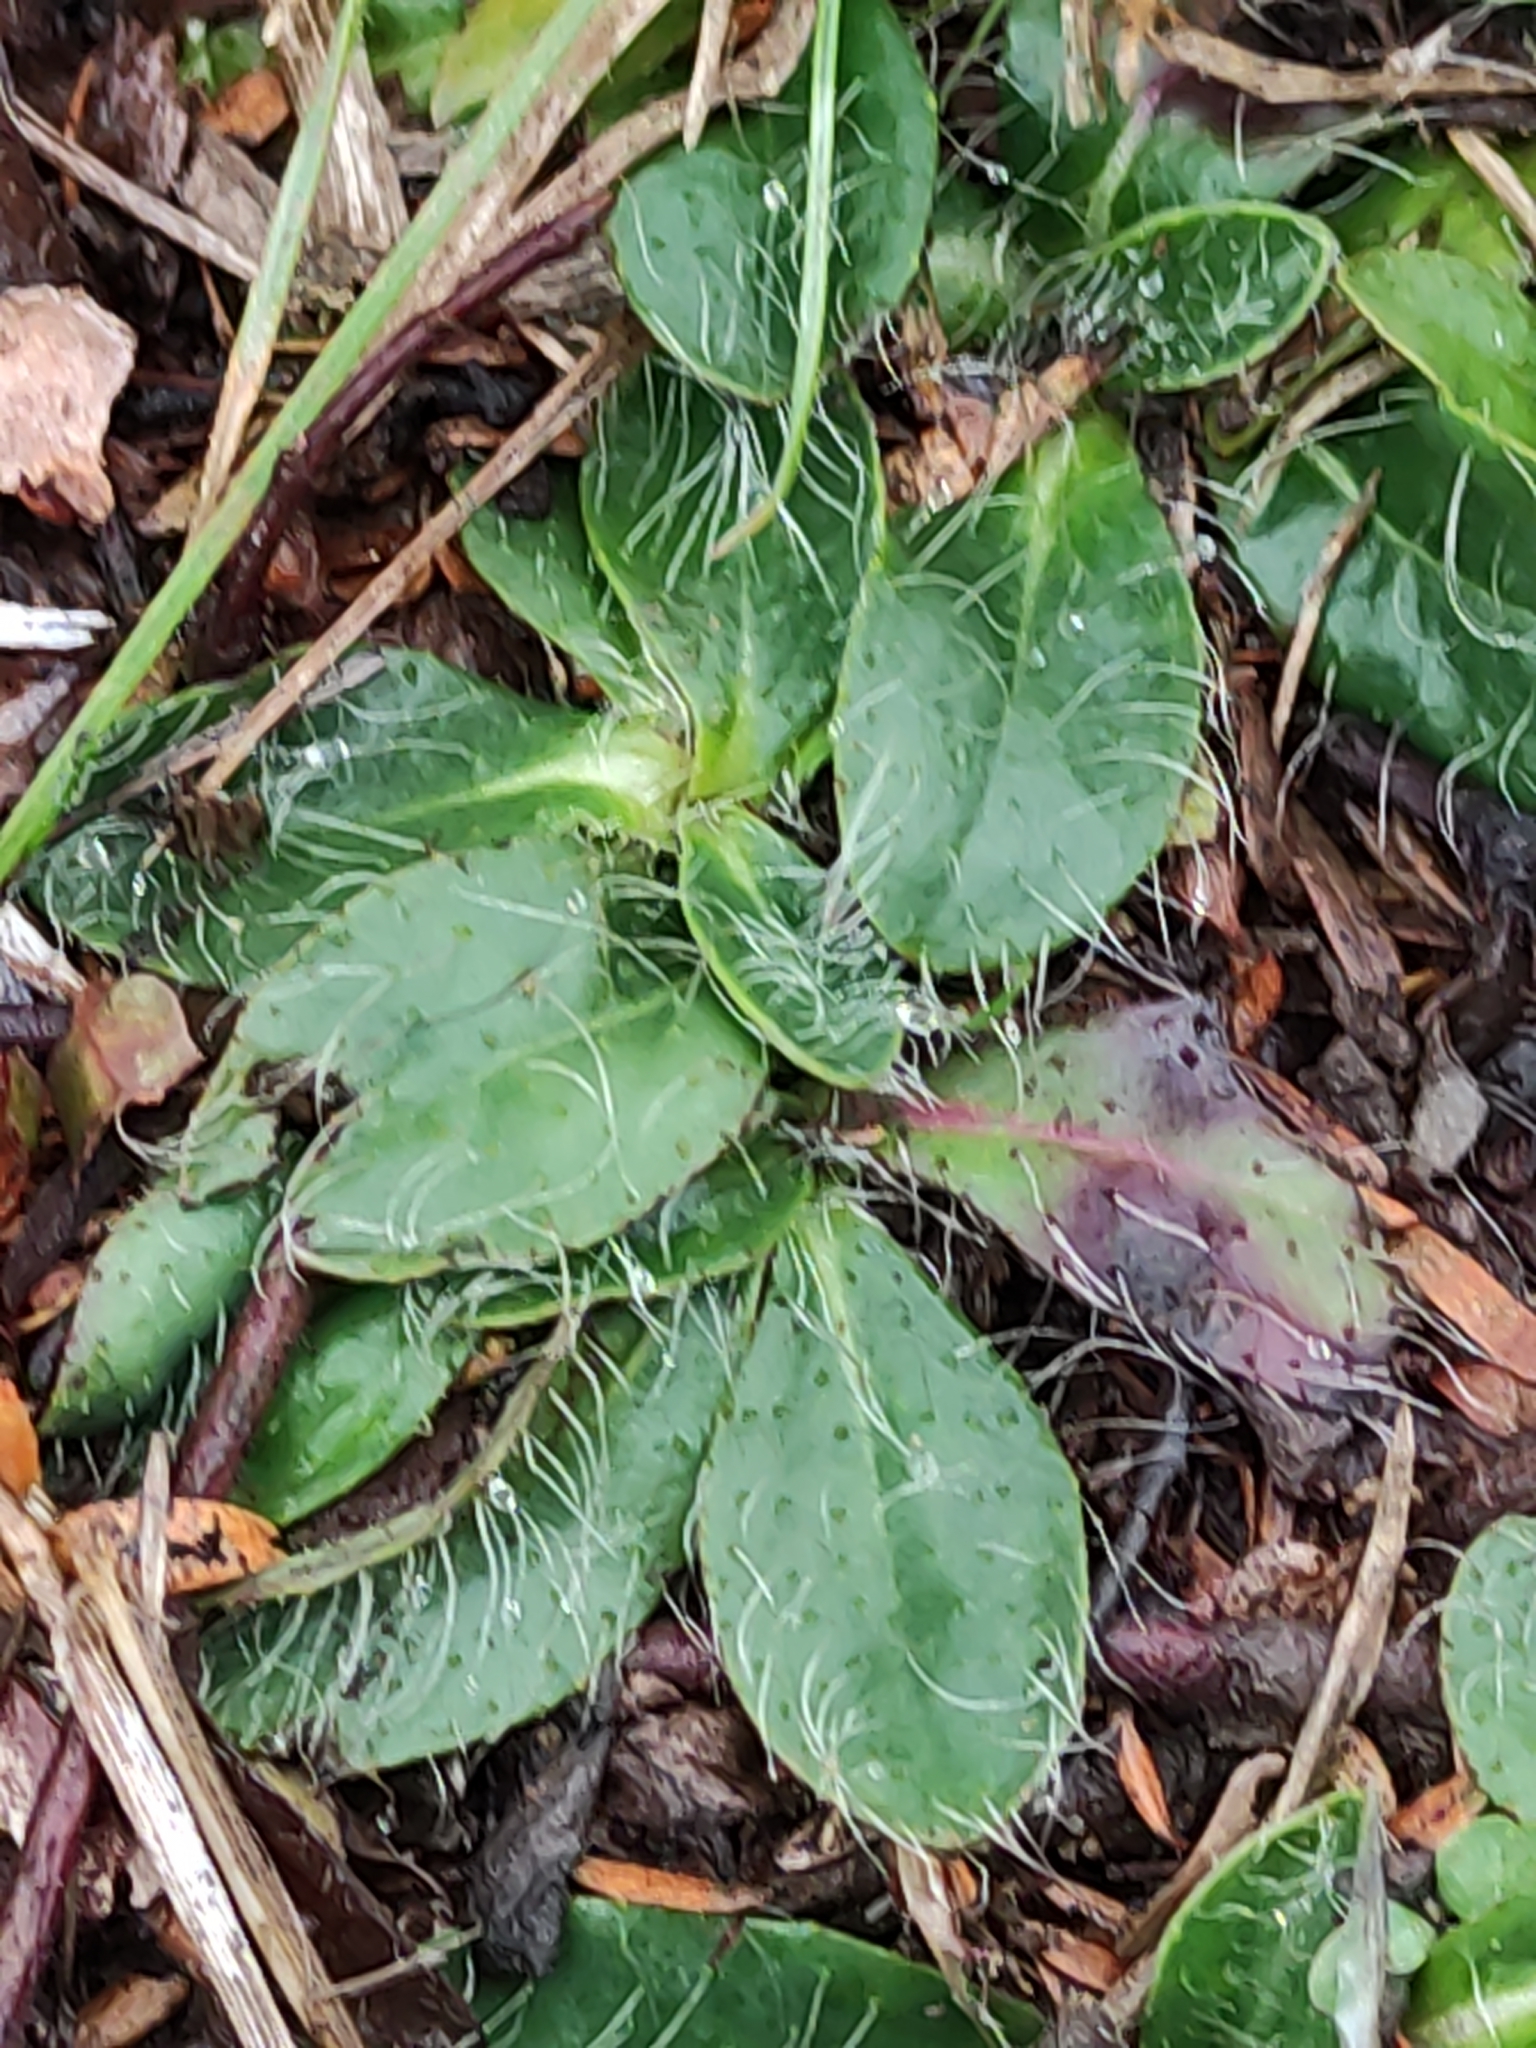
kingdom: Plantae
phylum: Tracheophyta
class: Magnoliopsida
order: Asterales
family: Asteraceae
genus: Pilosella
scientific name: Pilosella officinarum
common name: Mouse-ear hawkweed
